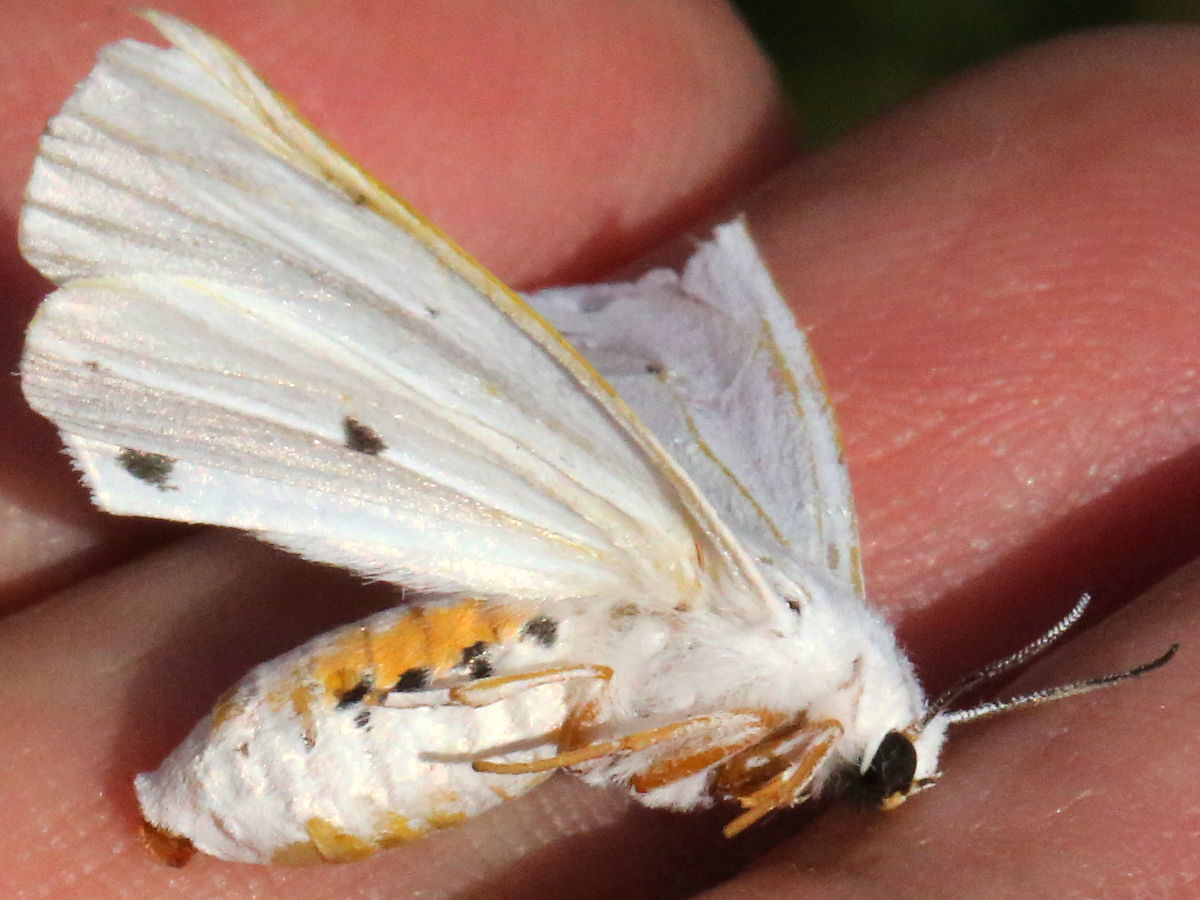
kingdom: Animalia
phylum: Arthropoda
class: Insecta
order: Lepidoptera
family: Erebidae
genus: Spilosoma
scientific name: Spilosoma virginica
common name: Virginia tiger moth
